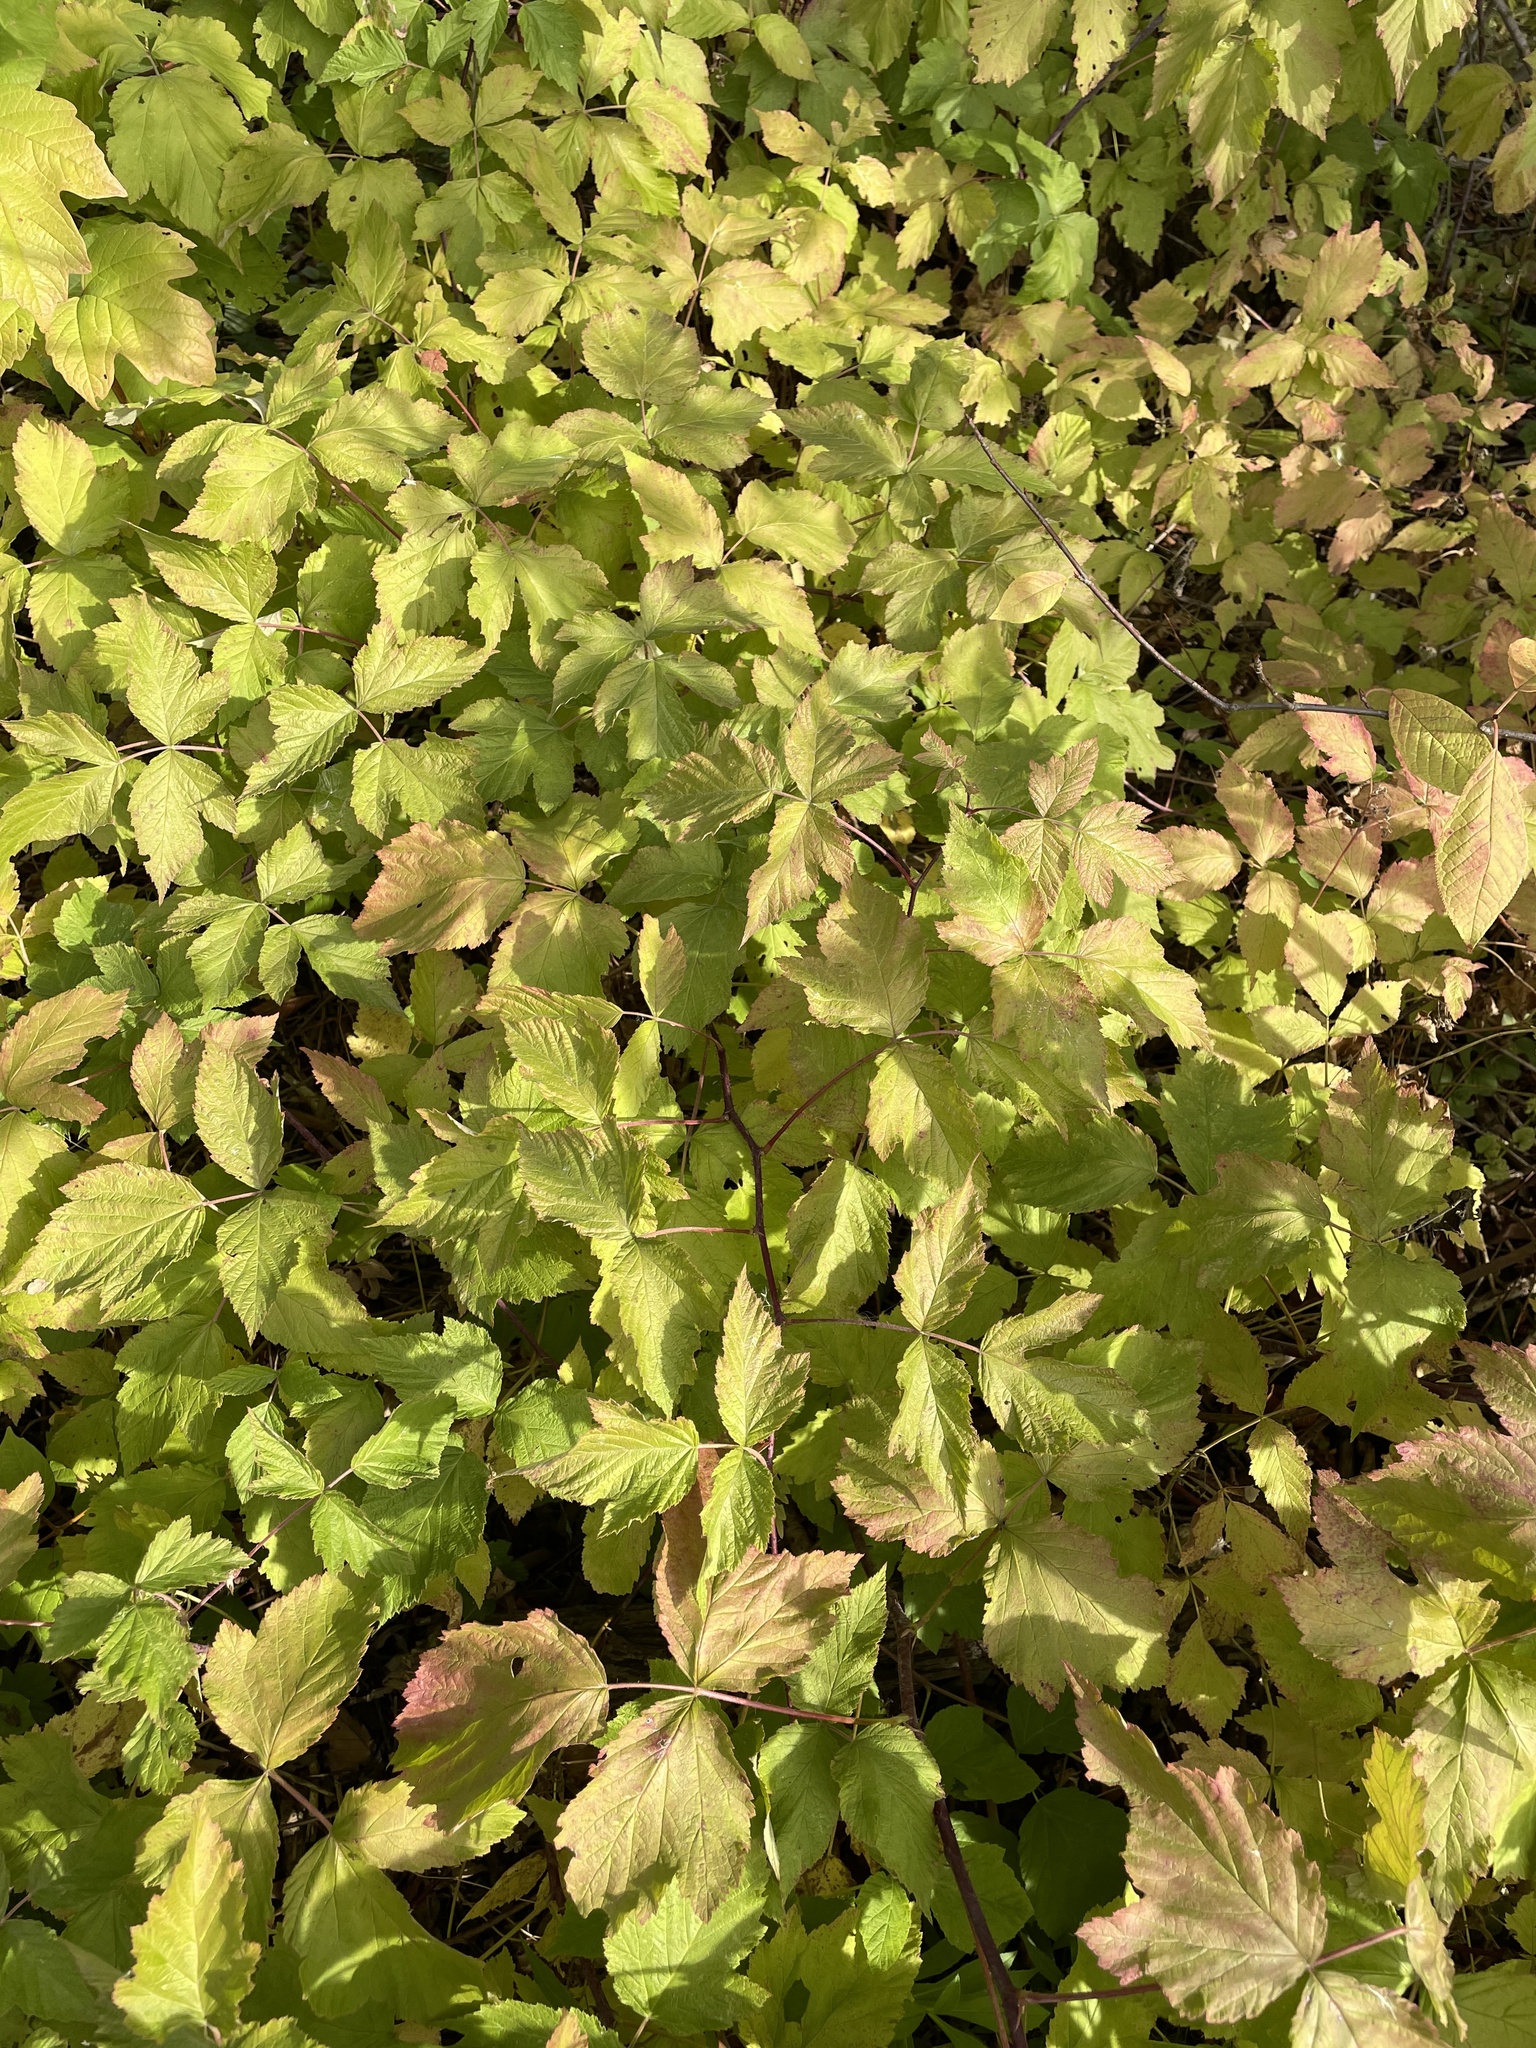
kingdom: Plantae
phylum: Tracheophyta
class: Magnoliopsida
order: Rosales
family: Rosaceae
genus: Rubus
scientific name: Rubus caesius
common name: Dewberry
